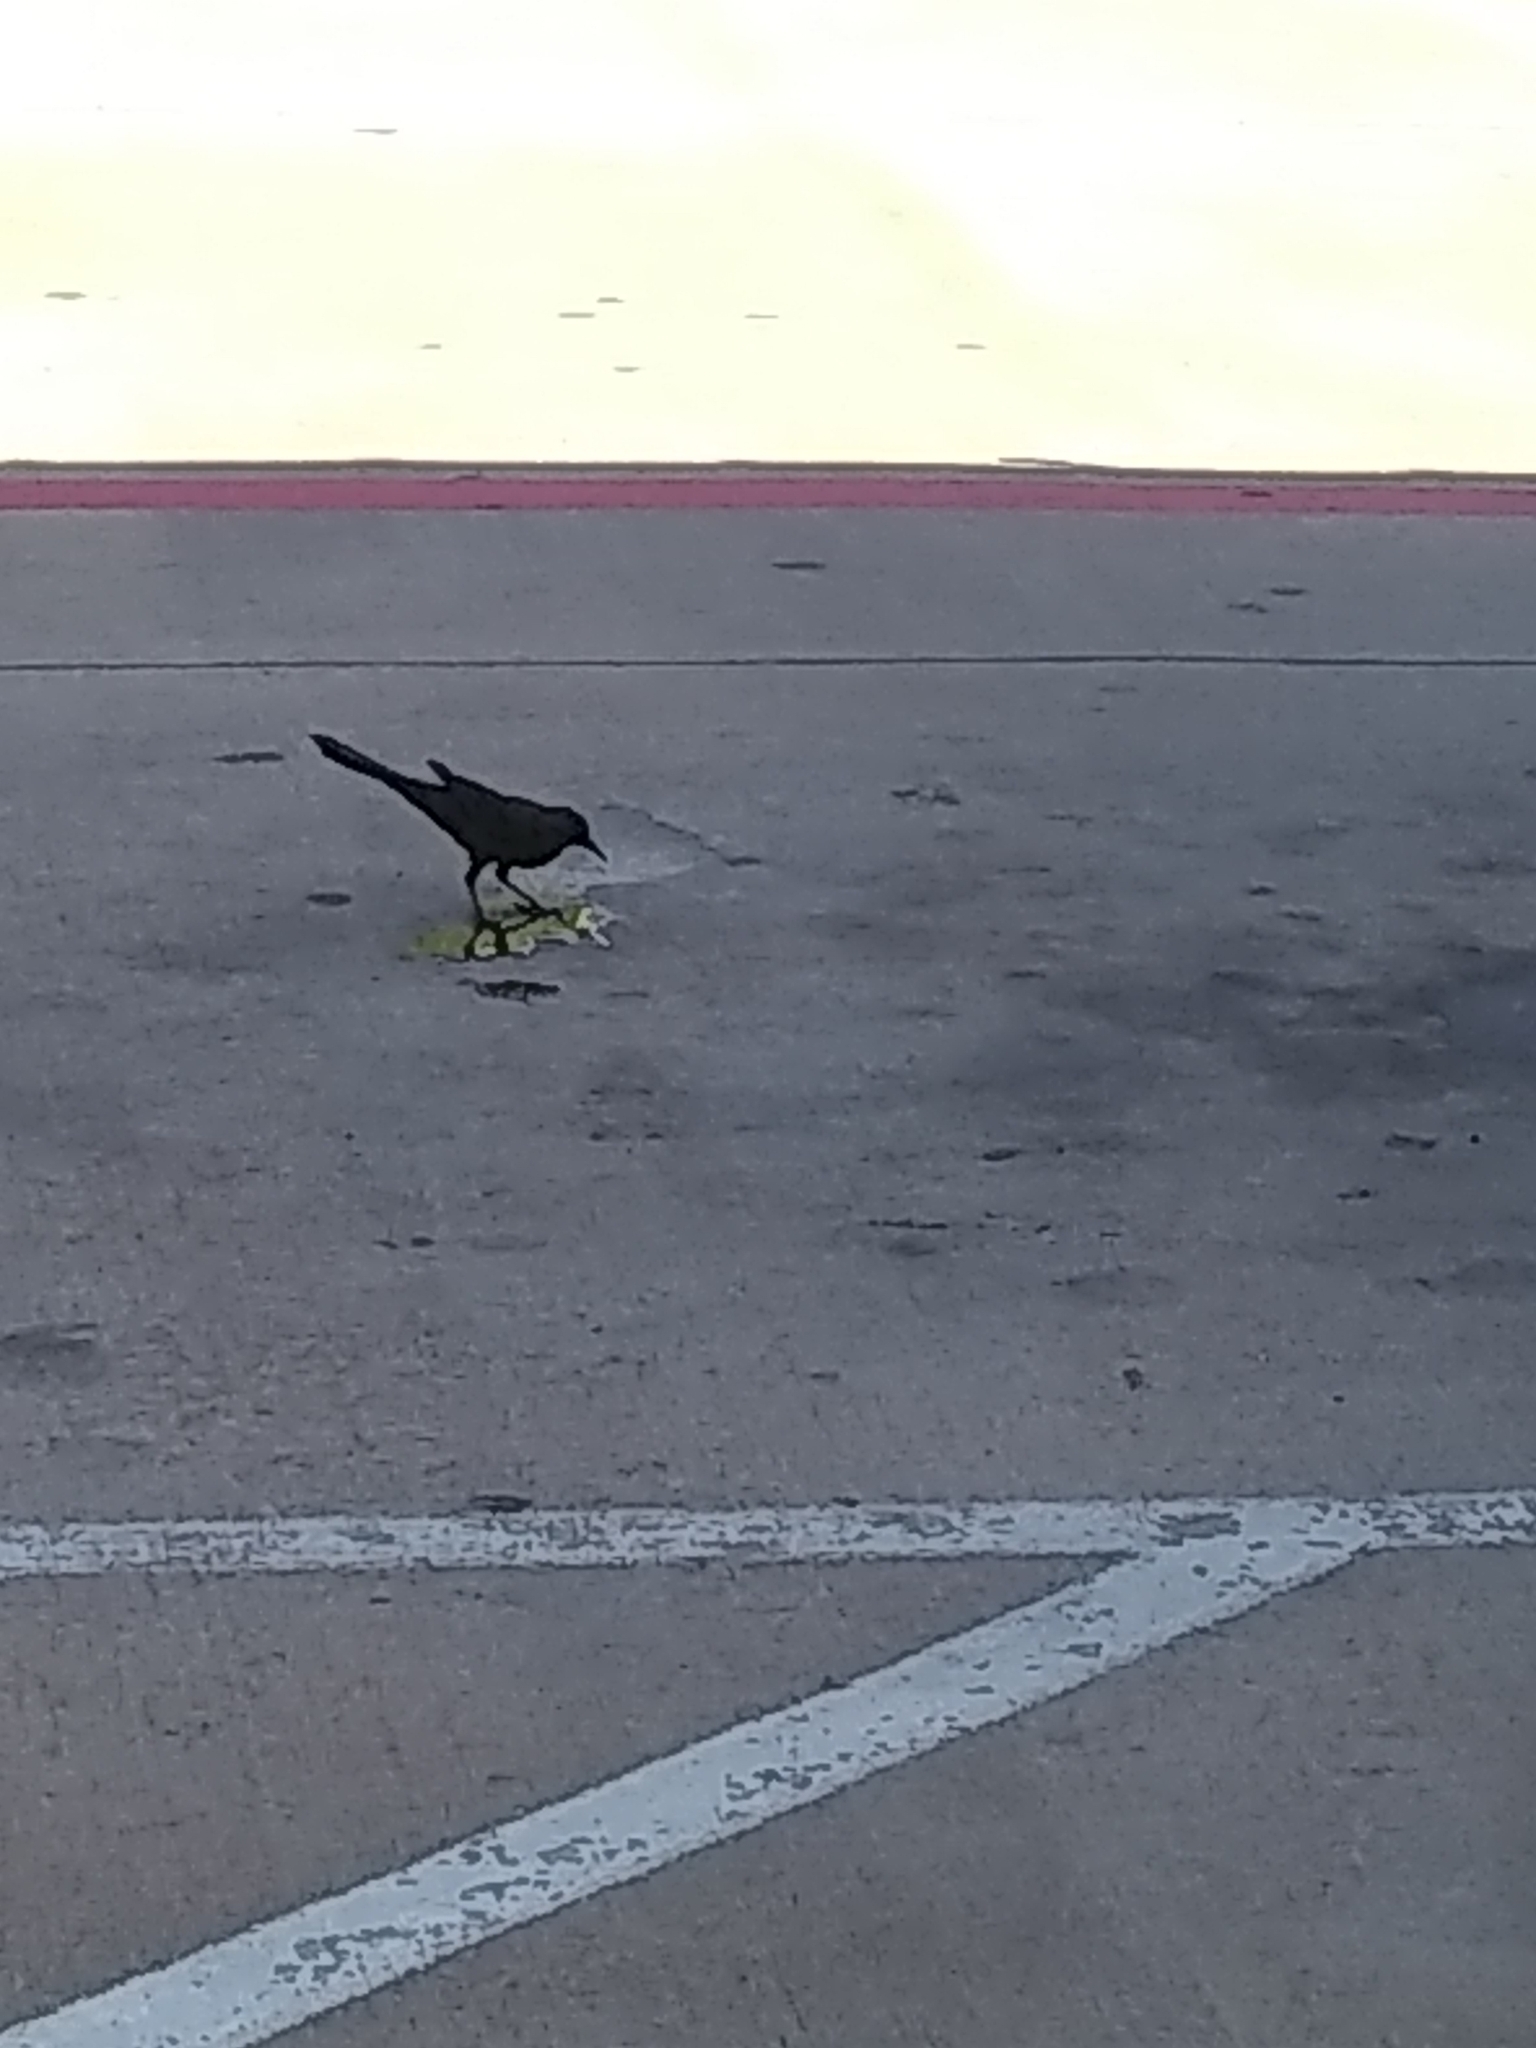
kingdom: Animalia
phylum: Chordata
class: Aves
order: Passeriformes
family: Icteridae
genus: Quiscalus
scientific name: Quiscalus mexicanus
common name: Great-tailed grackle
